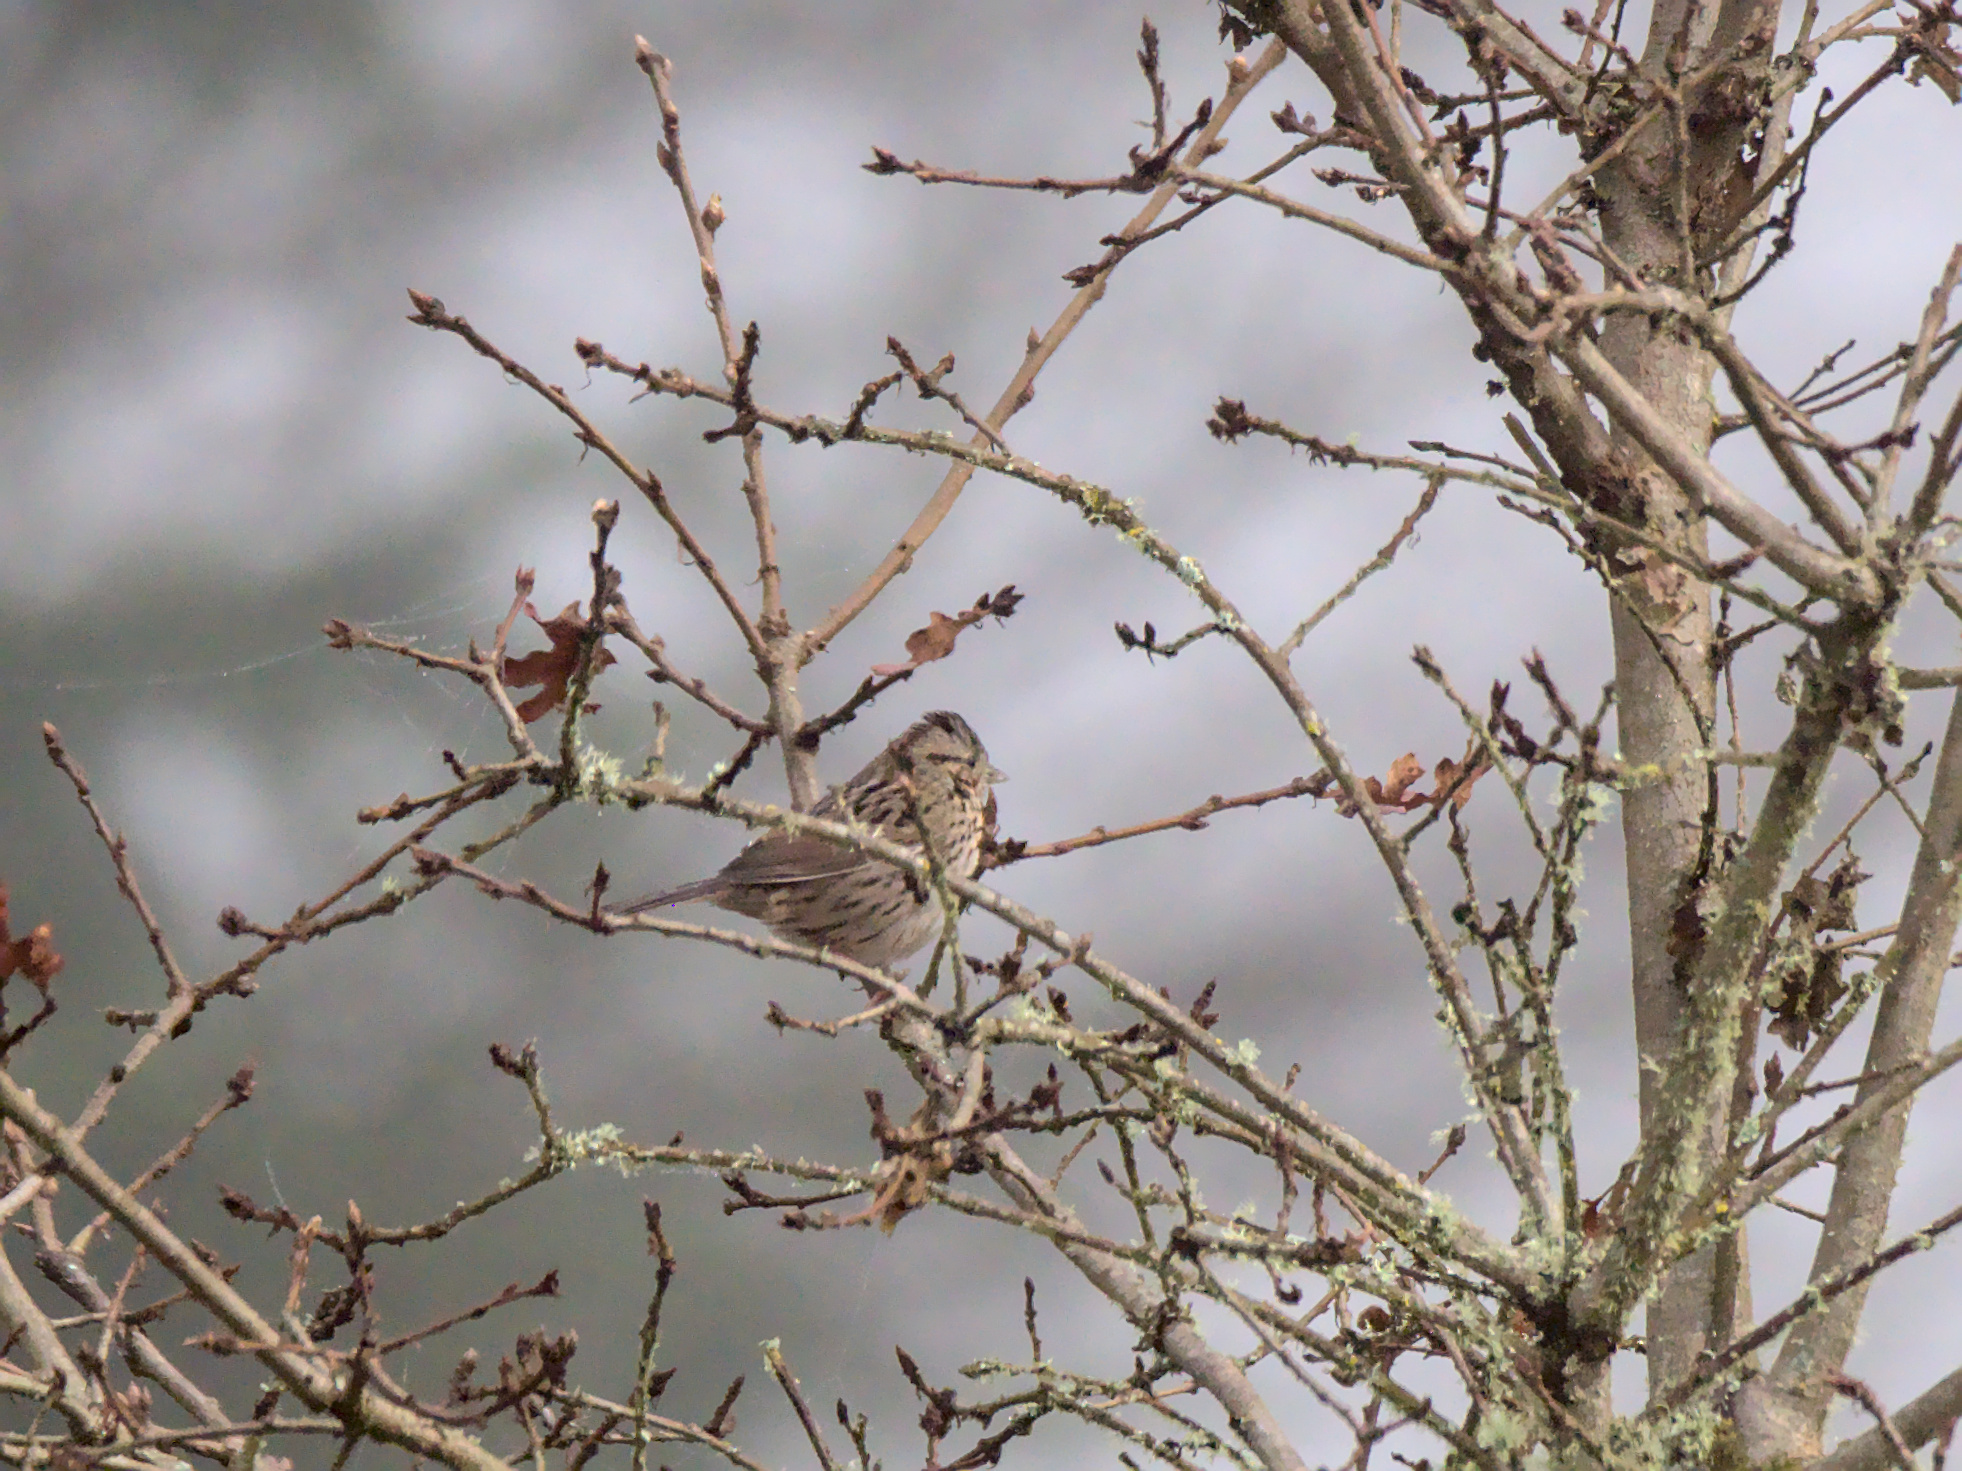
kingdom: Animalia
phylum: Chordata
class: Aves
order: Passeriformes
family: Passerellidae
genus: Melospiza
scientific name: Melospiza lincolnii
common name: Lincoln's sparrow
